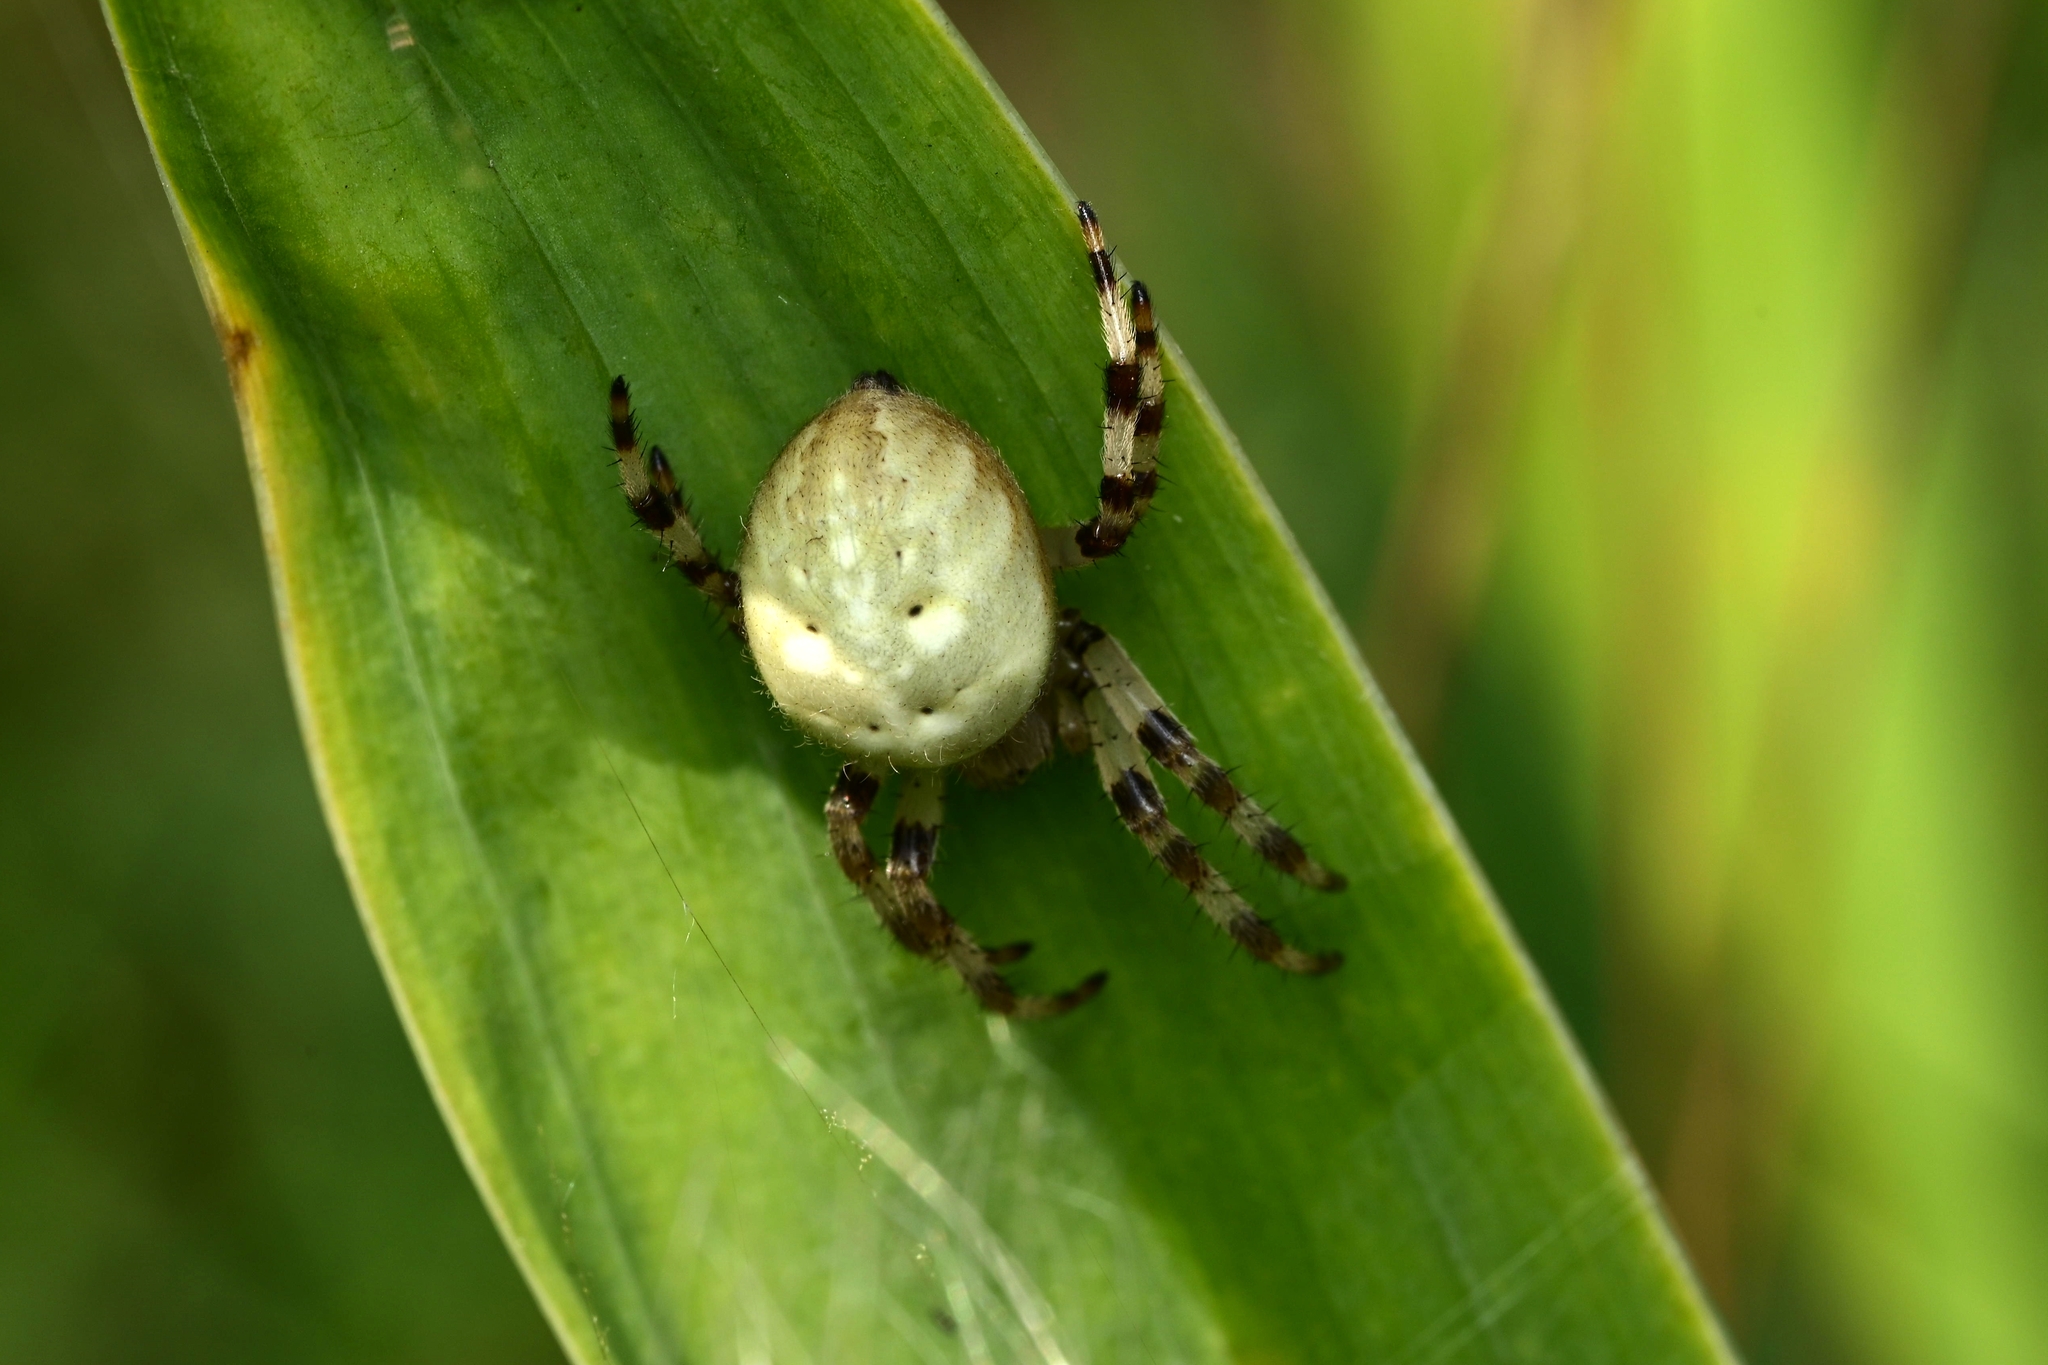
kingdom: Animalia
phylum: Arthropoda
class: Arachnida
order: Araneae
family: Araneidae
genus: Araneus
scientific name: Araneus quadratus
